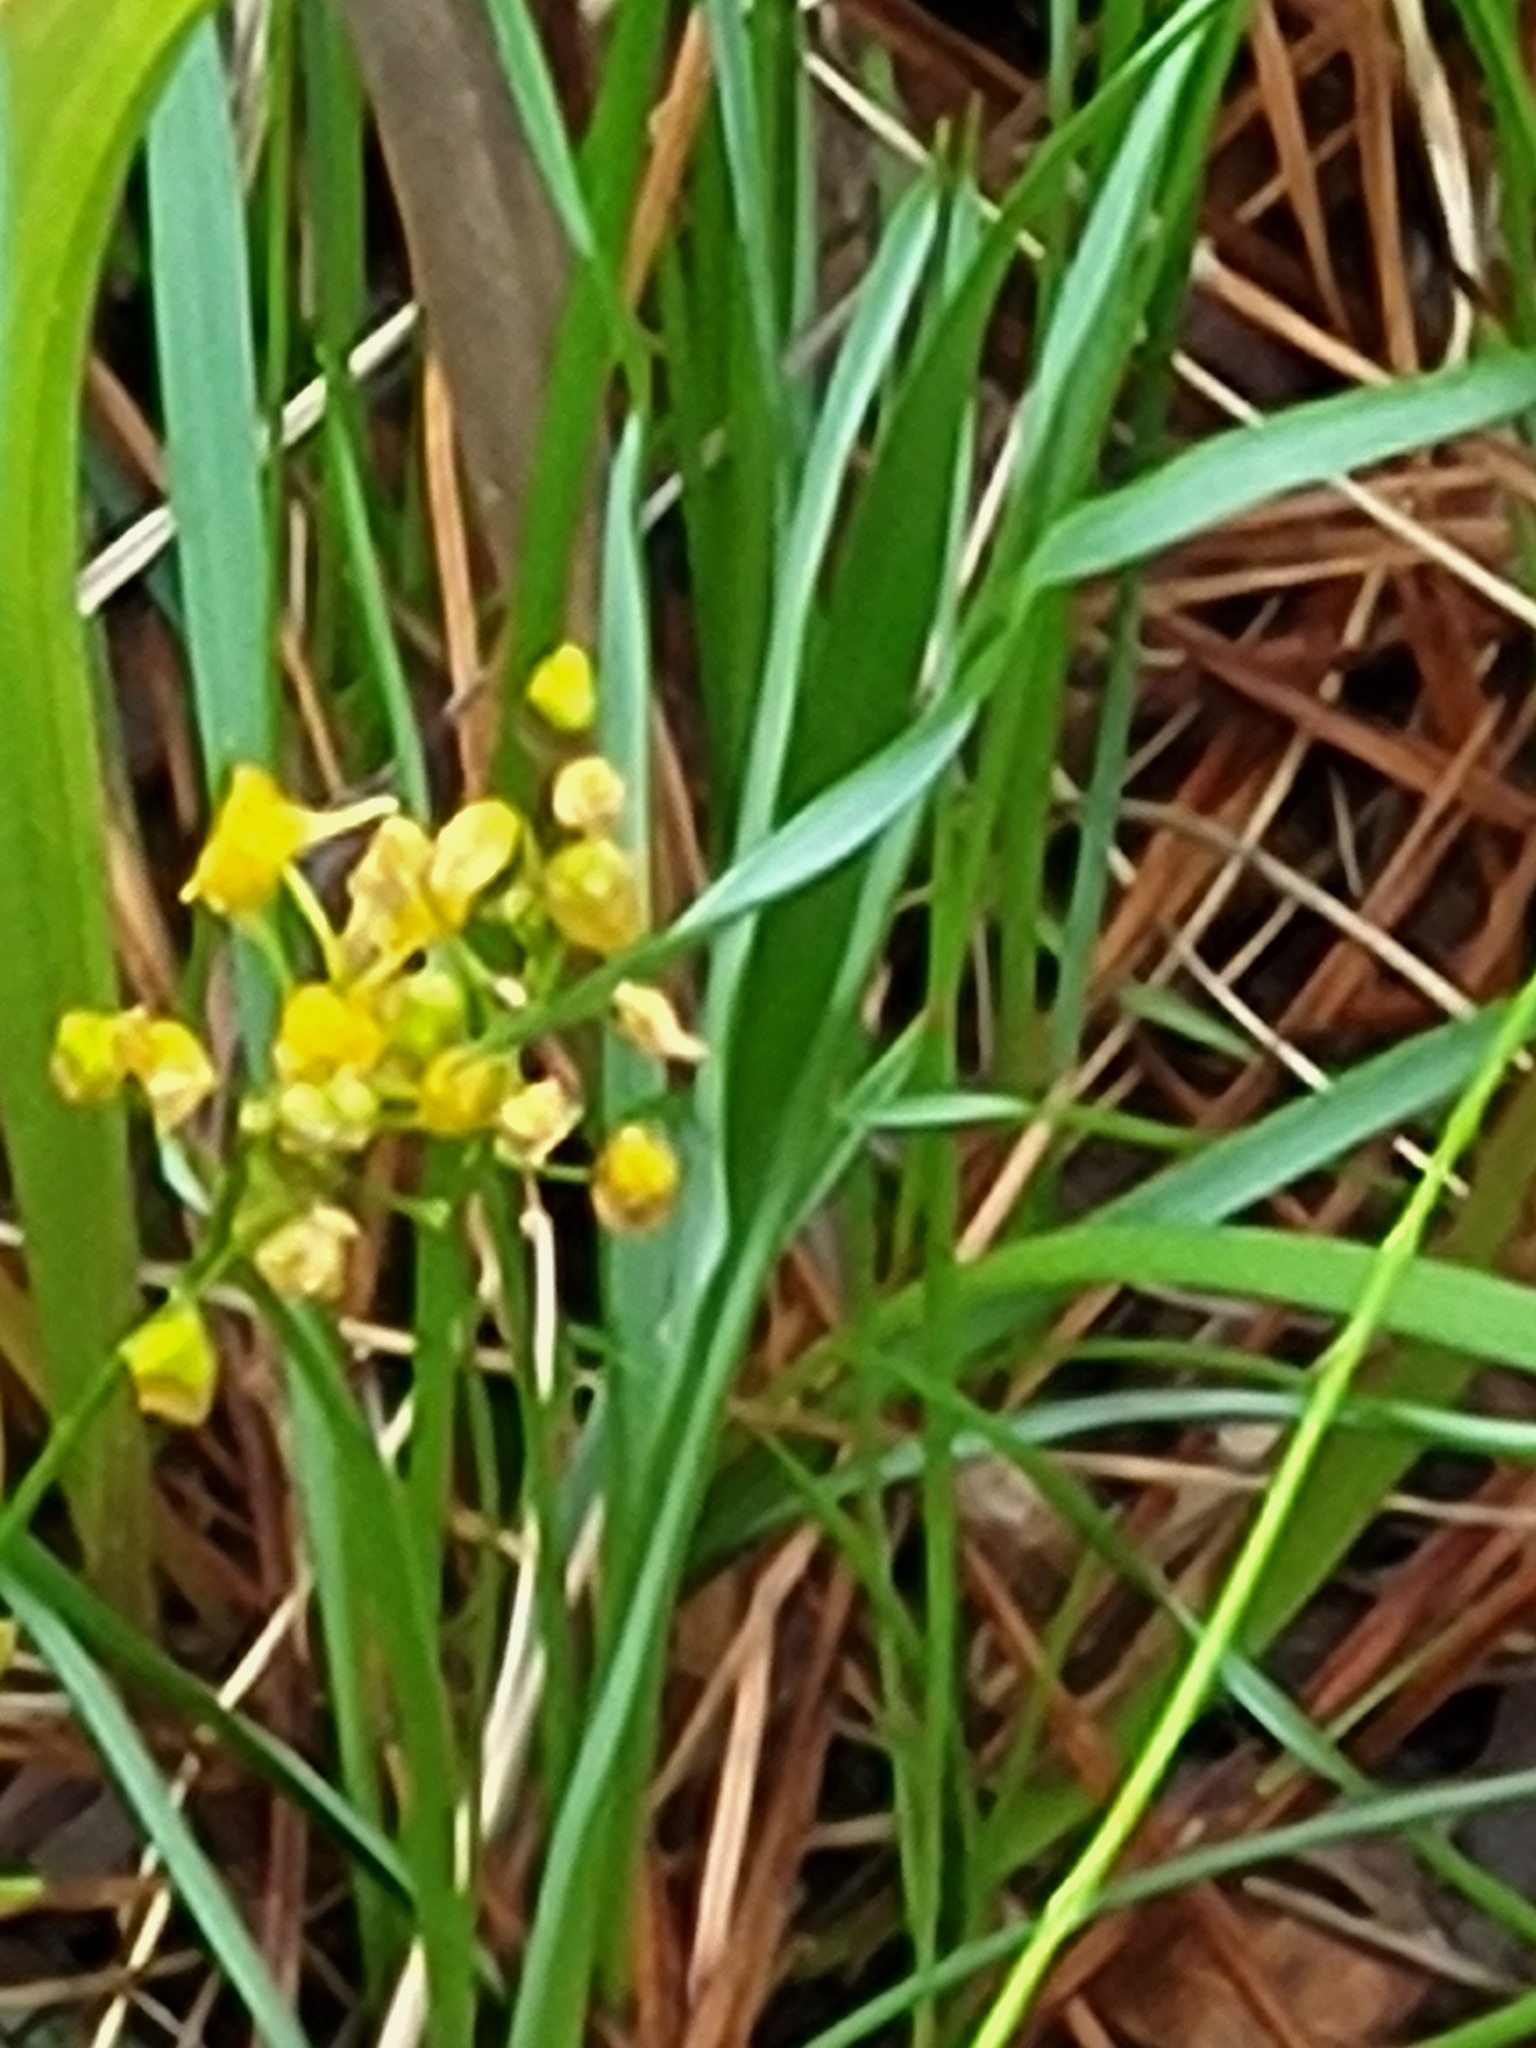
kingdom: Plantae
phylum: Tracheophyta
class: Liliopsida
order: Asparagales
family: Asparagaceae
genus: Schoenolirion
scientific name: Schoenolirion croceum
